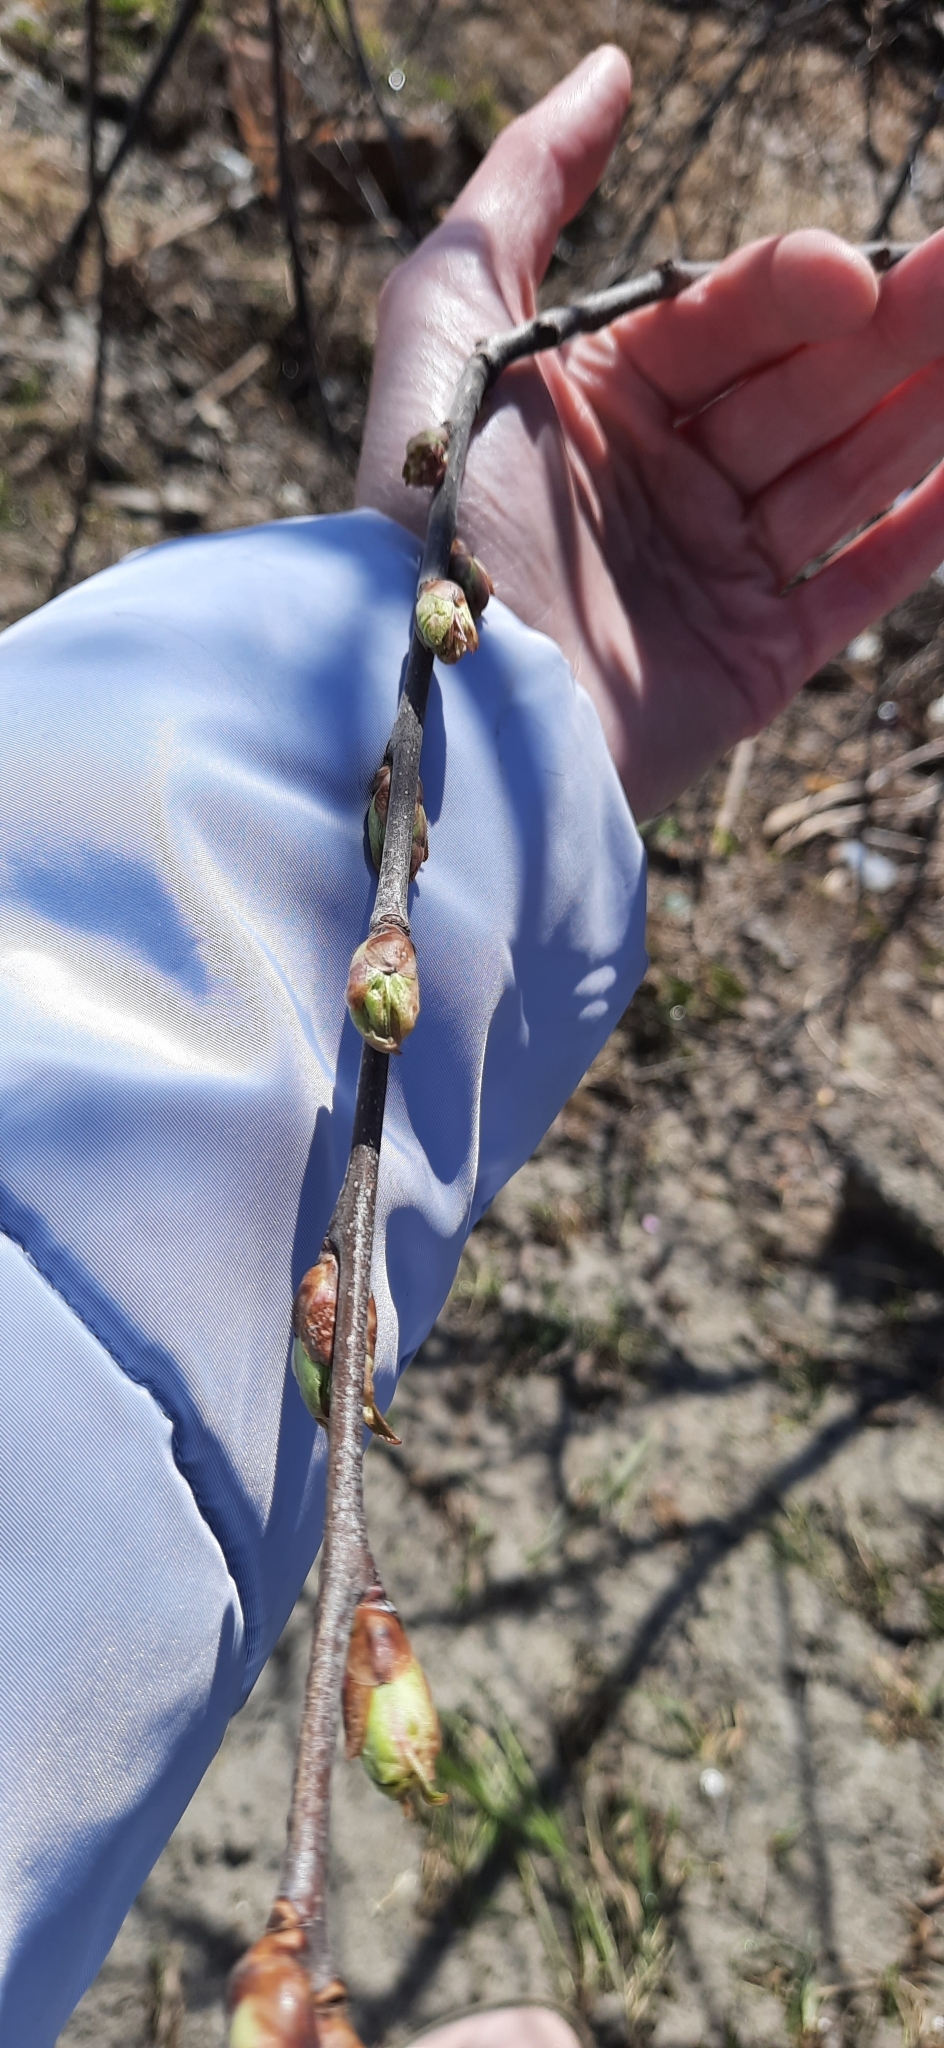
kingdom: Plantae
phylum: Tracheophyta
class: Magnoliopsida
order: Rosales
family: Rosaceae
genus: Prunus
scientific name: Prunus padus
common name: Bird cherry
